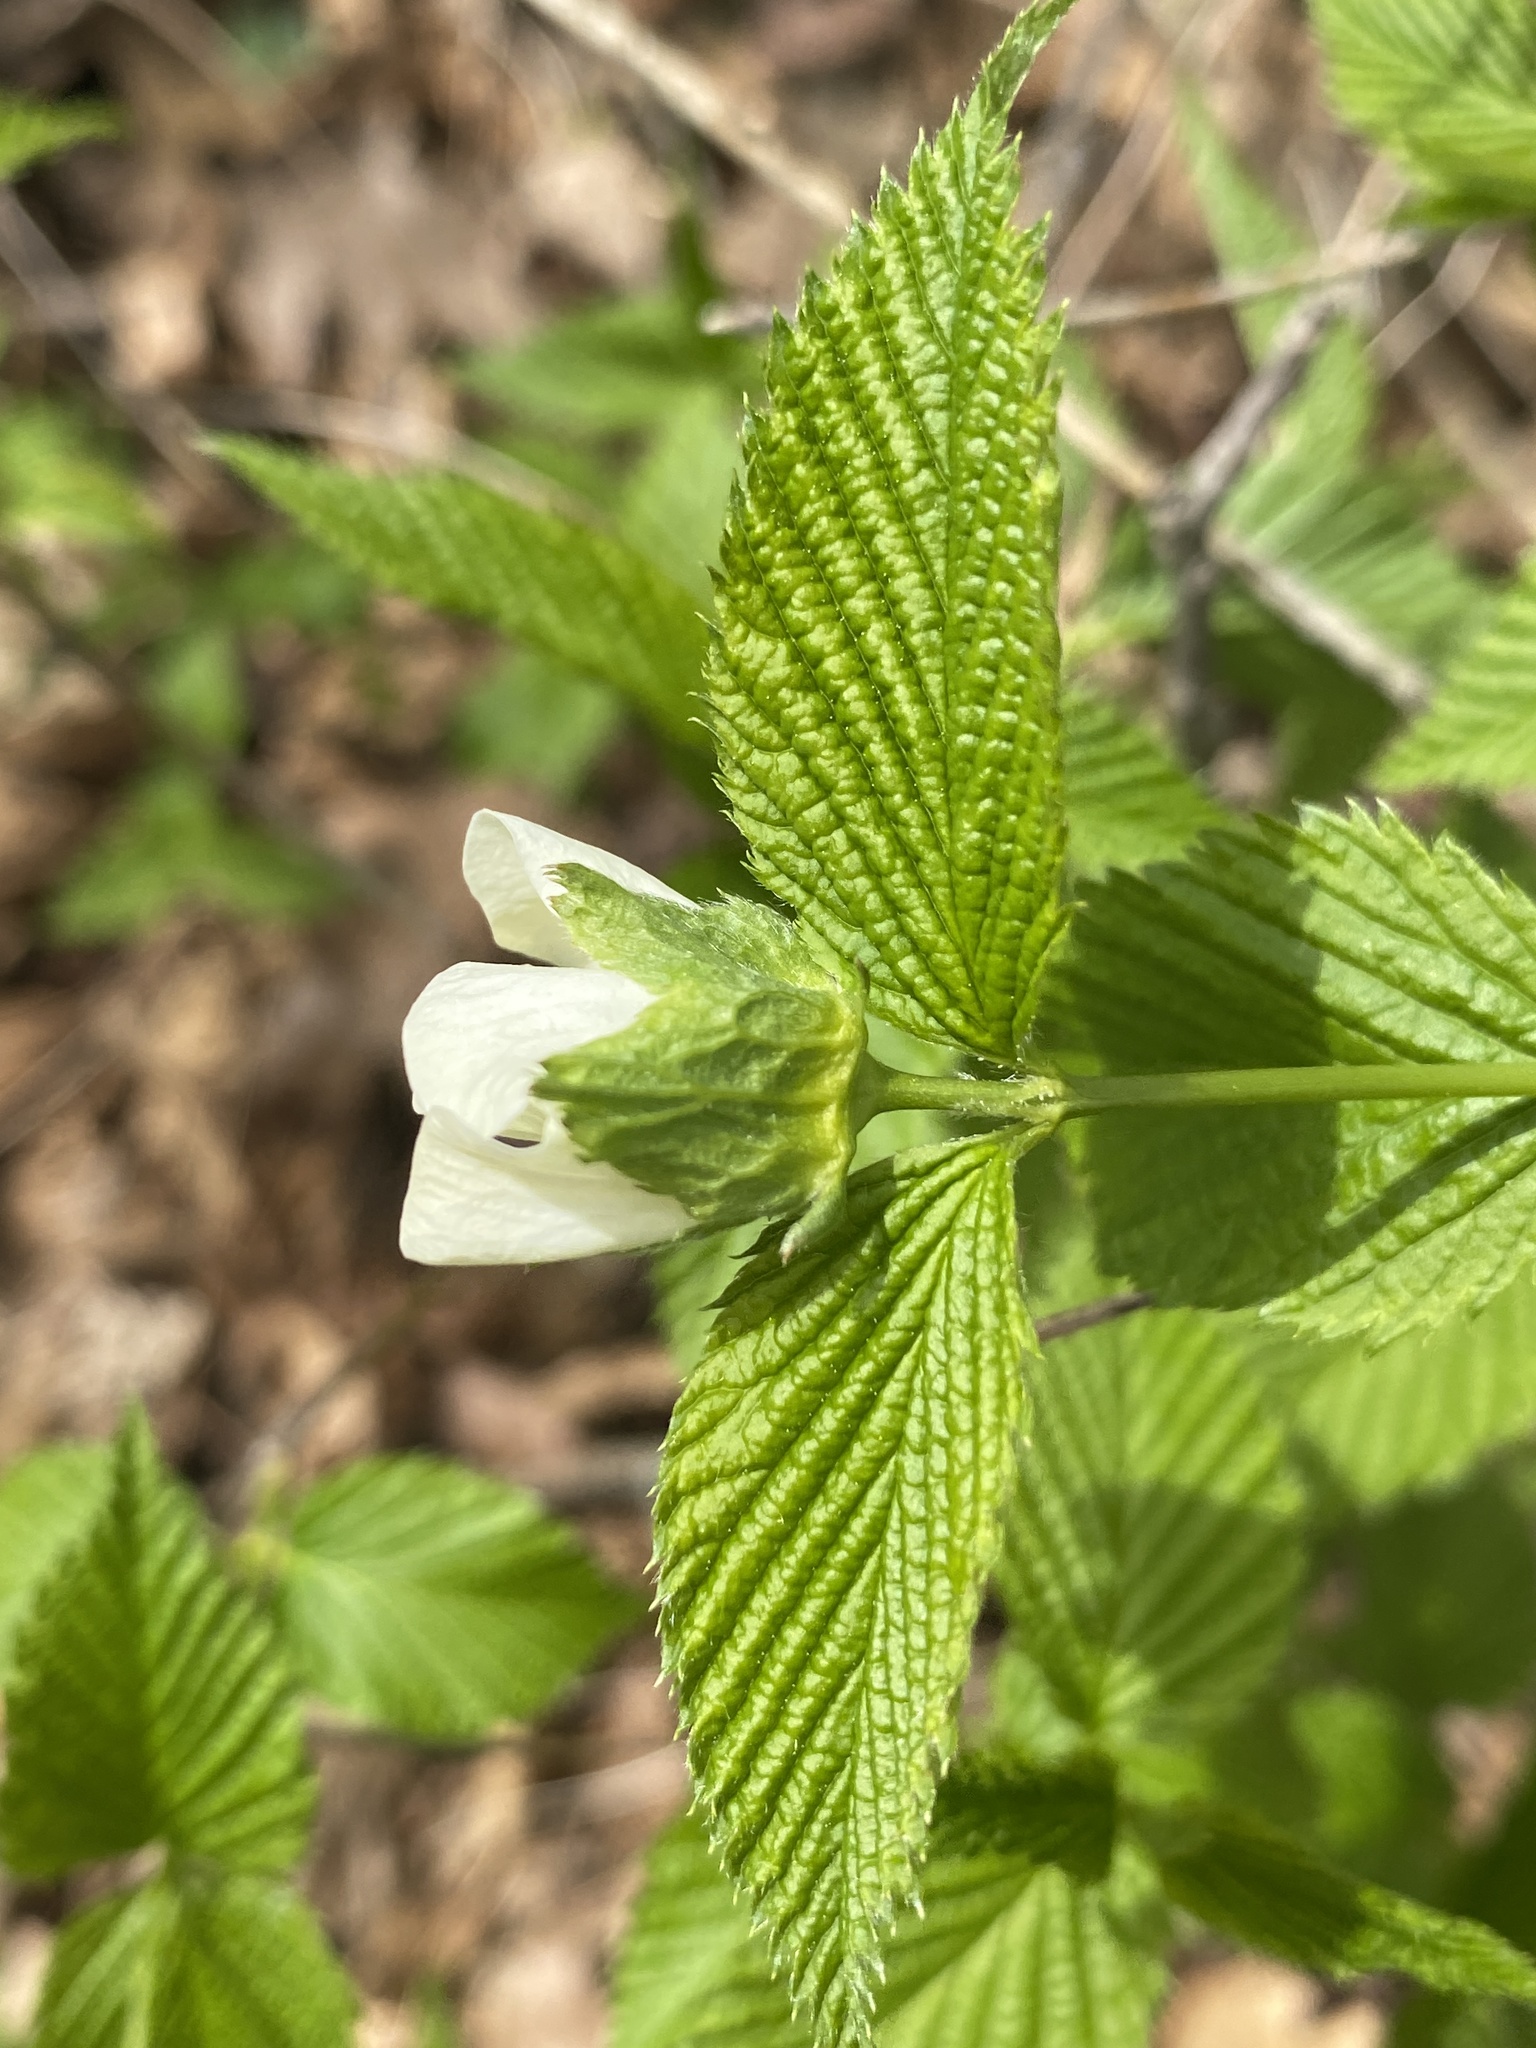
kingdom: Plantae
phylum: Tracheophyta
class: Magnoliopsida
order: Rosales
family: Rosaceae
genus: Rhodotypos
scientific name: Rhodotypos scandens
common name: Jetbead
